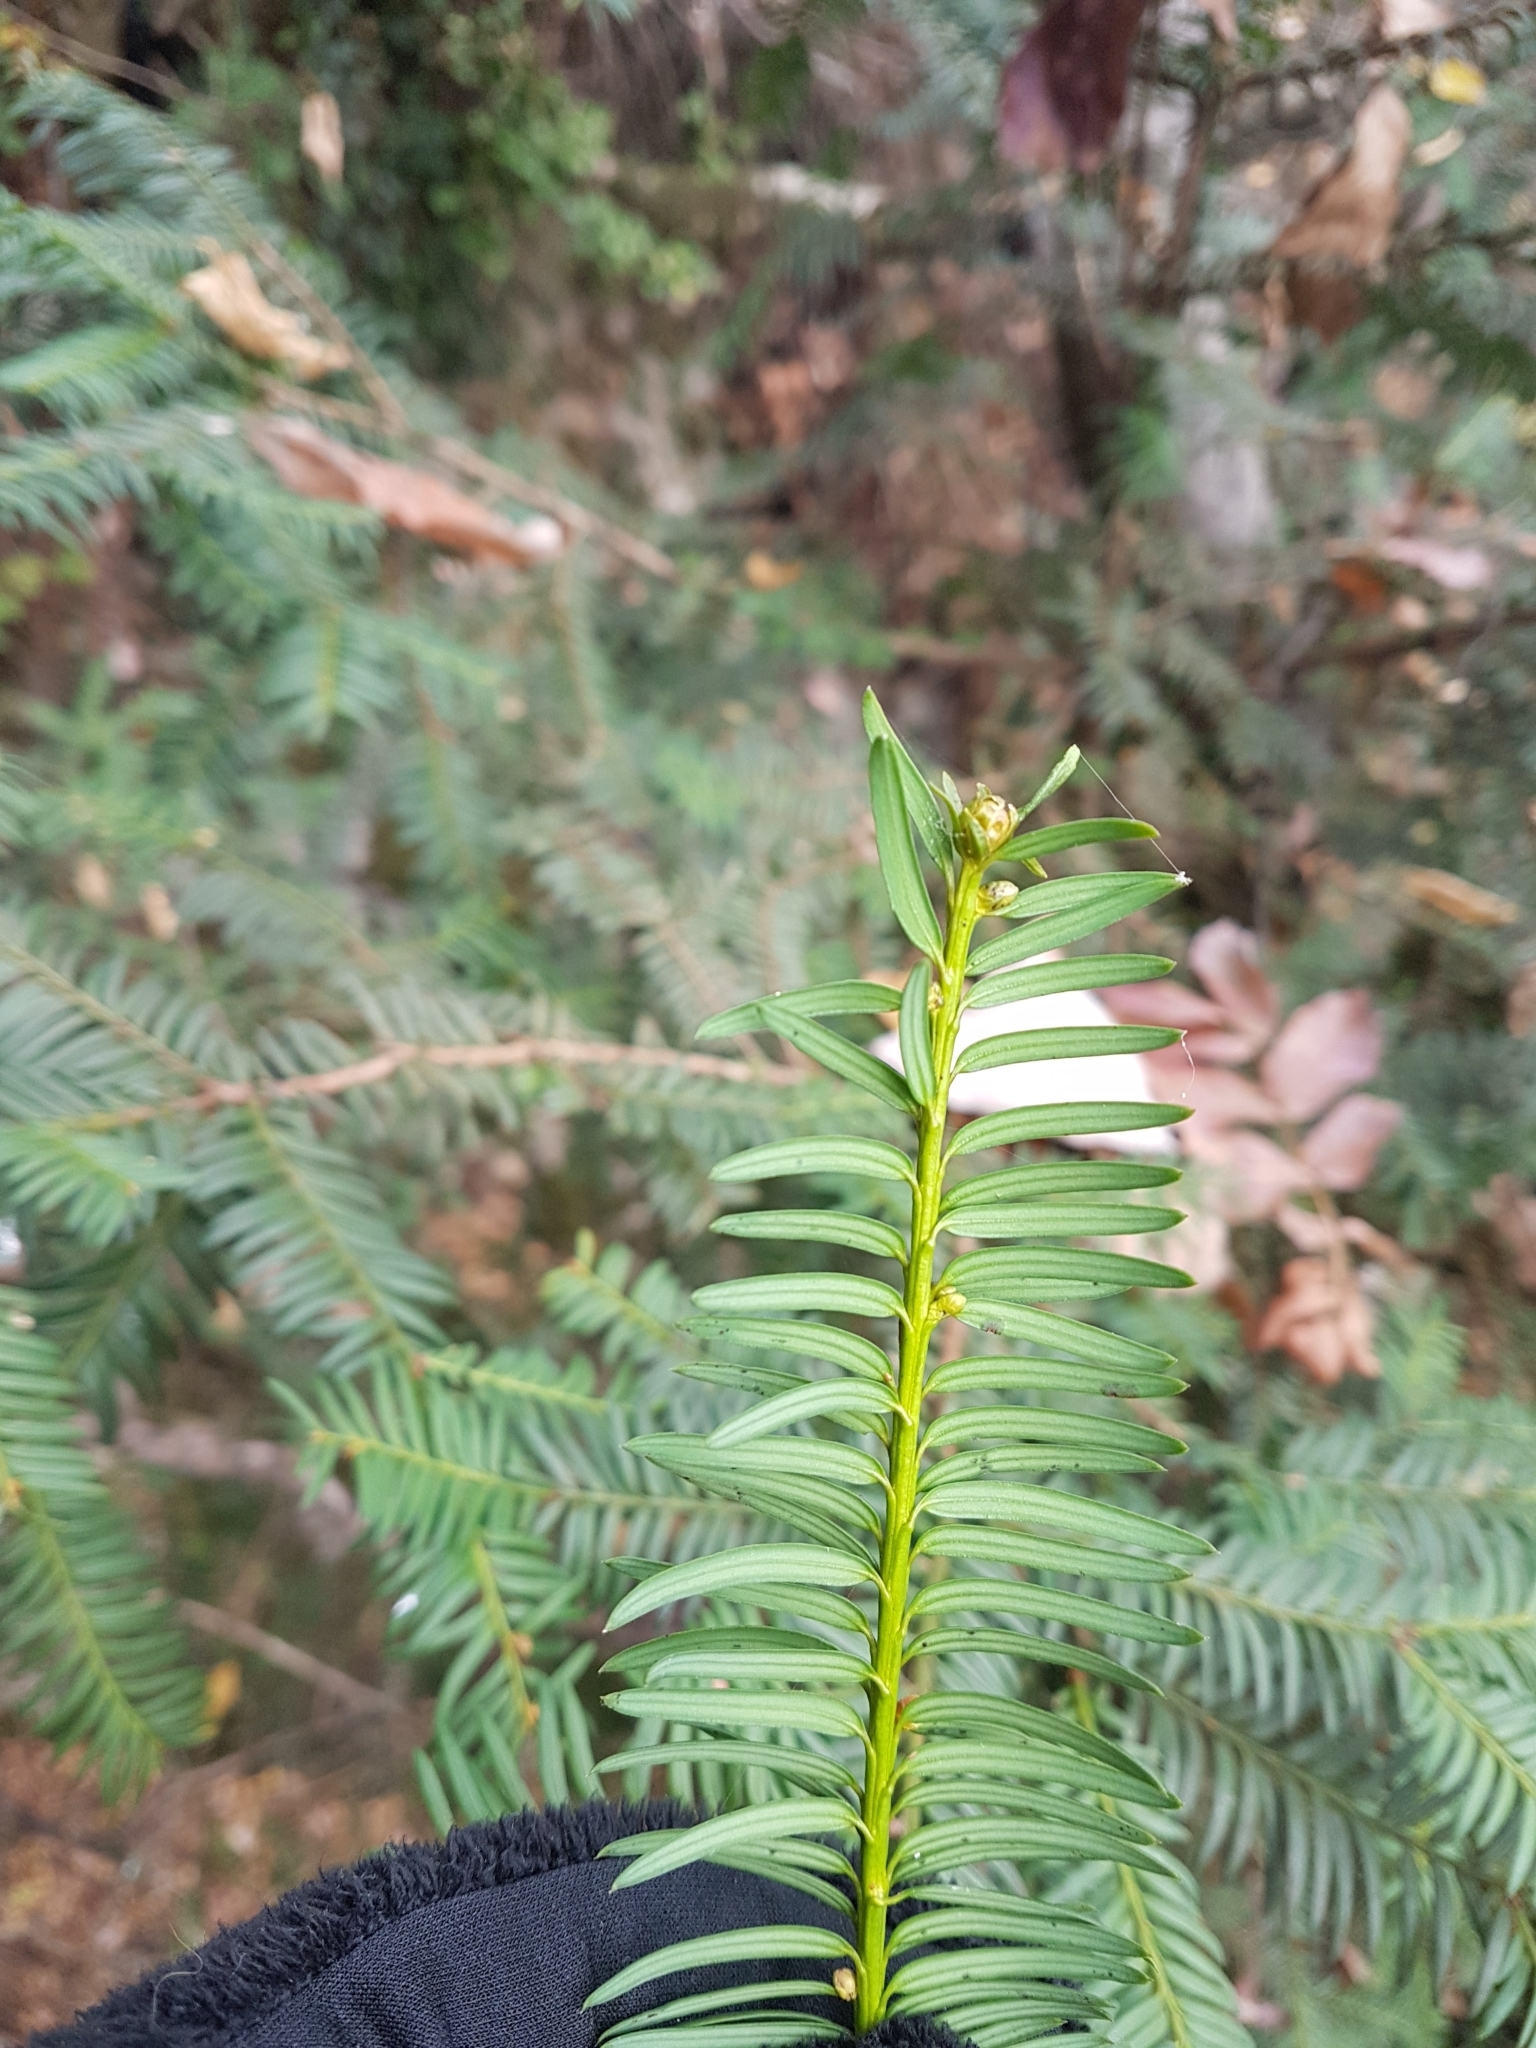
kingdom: Plantae
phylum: Tracheophyta
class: Pinopsida
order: Pinales
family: Taxaceae
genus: Taxus
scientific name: Taxus baccata
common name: Yew
